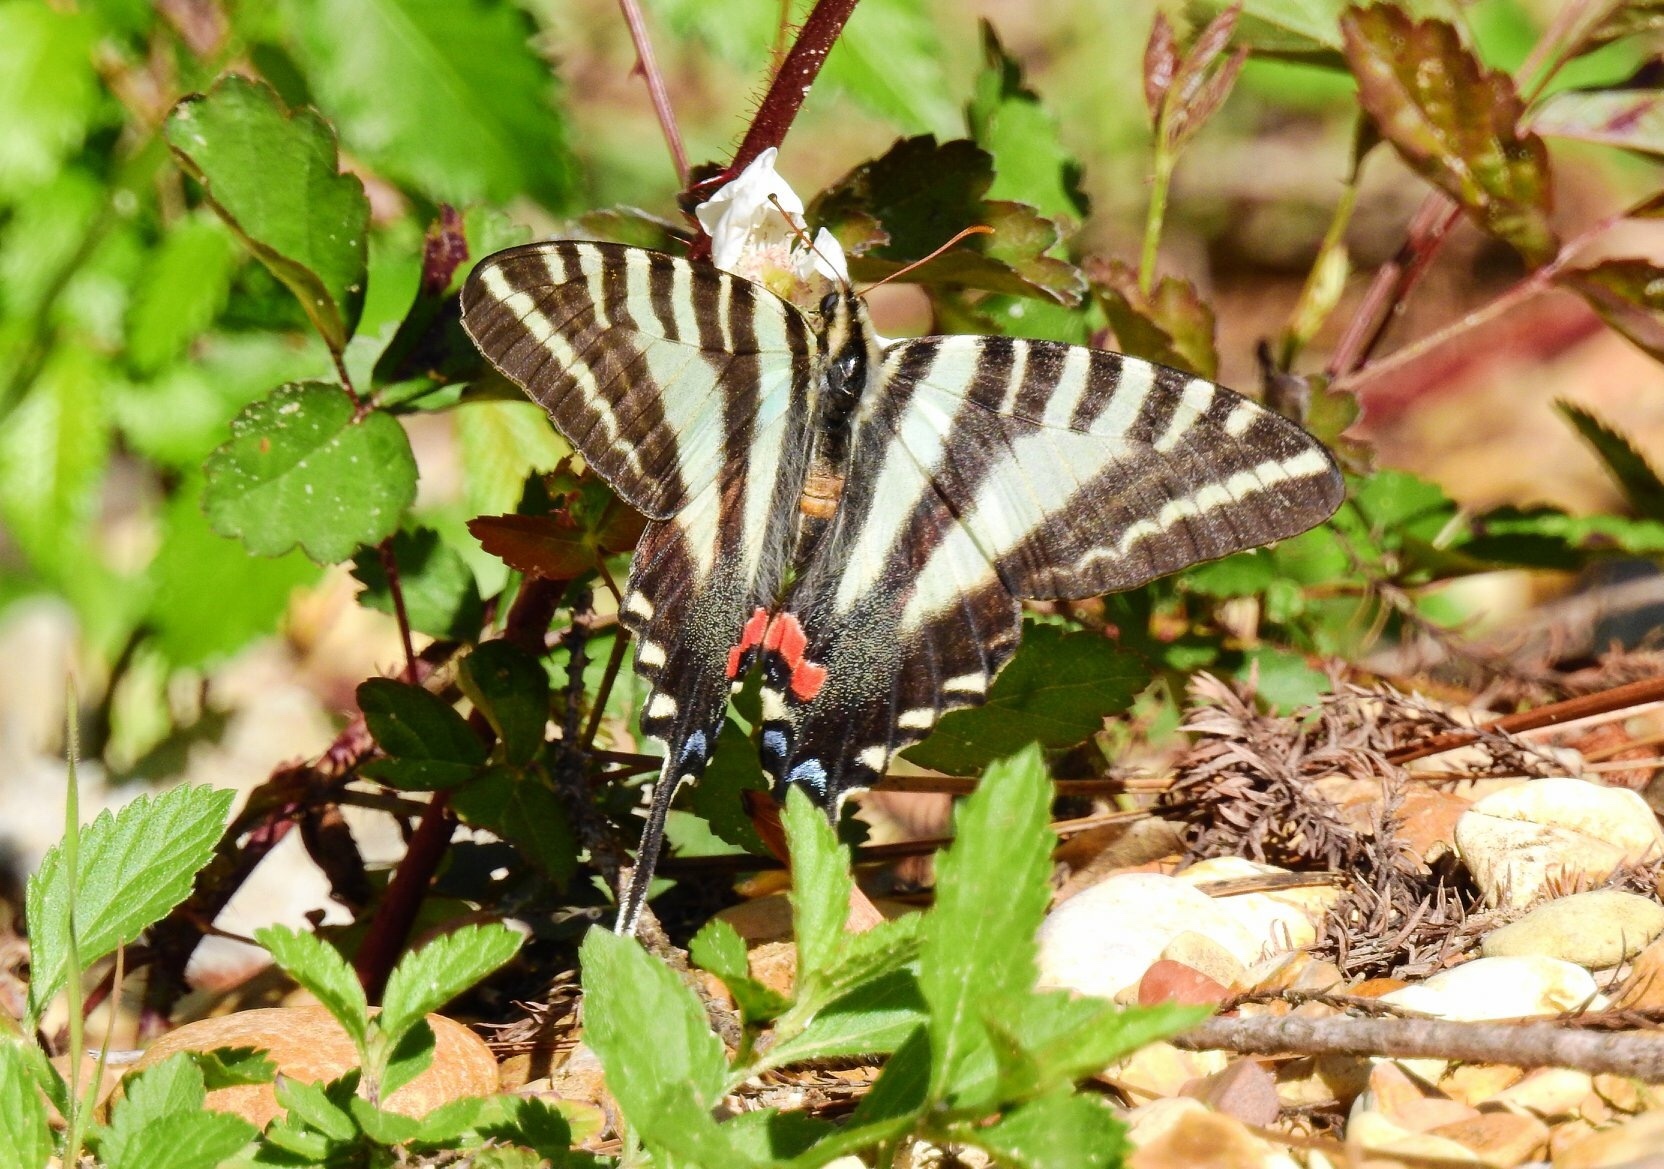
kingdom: Animalia
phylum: Arthropoda
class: Insecta
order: Lepidoptera
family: Papilionidae
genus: Protographium
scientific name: Protographium marcellus
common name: Zebra swallowtail
